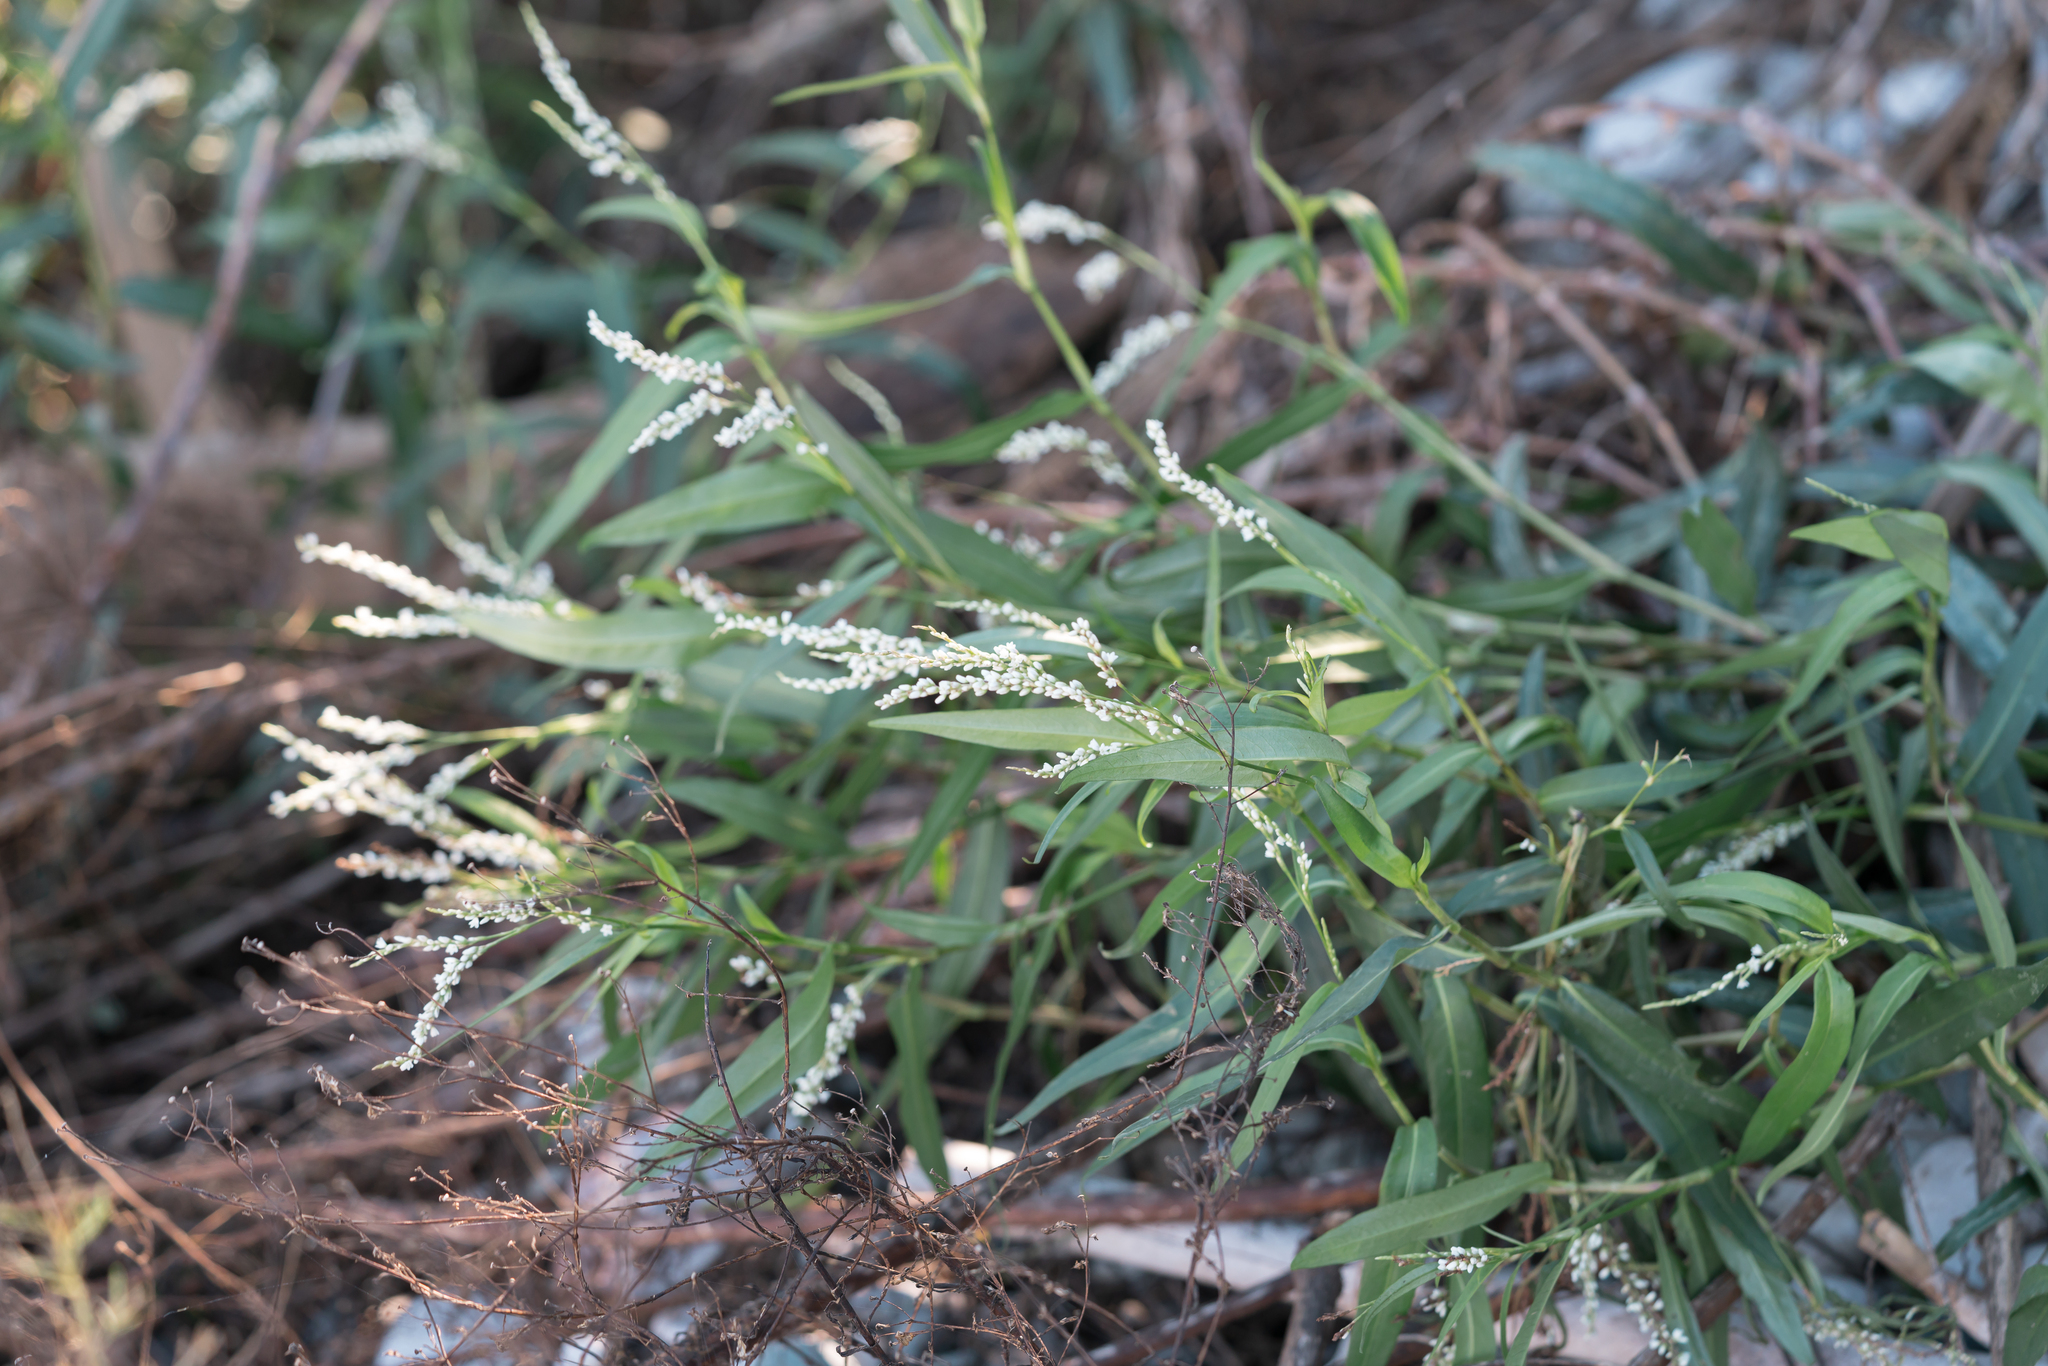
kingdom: Plantae
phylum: Tracheophyta
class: Magnoliopsida
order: Caryophyllales
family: Polygonaceae
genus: Persicaria
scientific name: Persicaria decipiens
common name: Willow-weed
